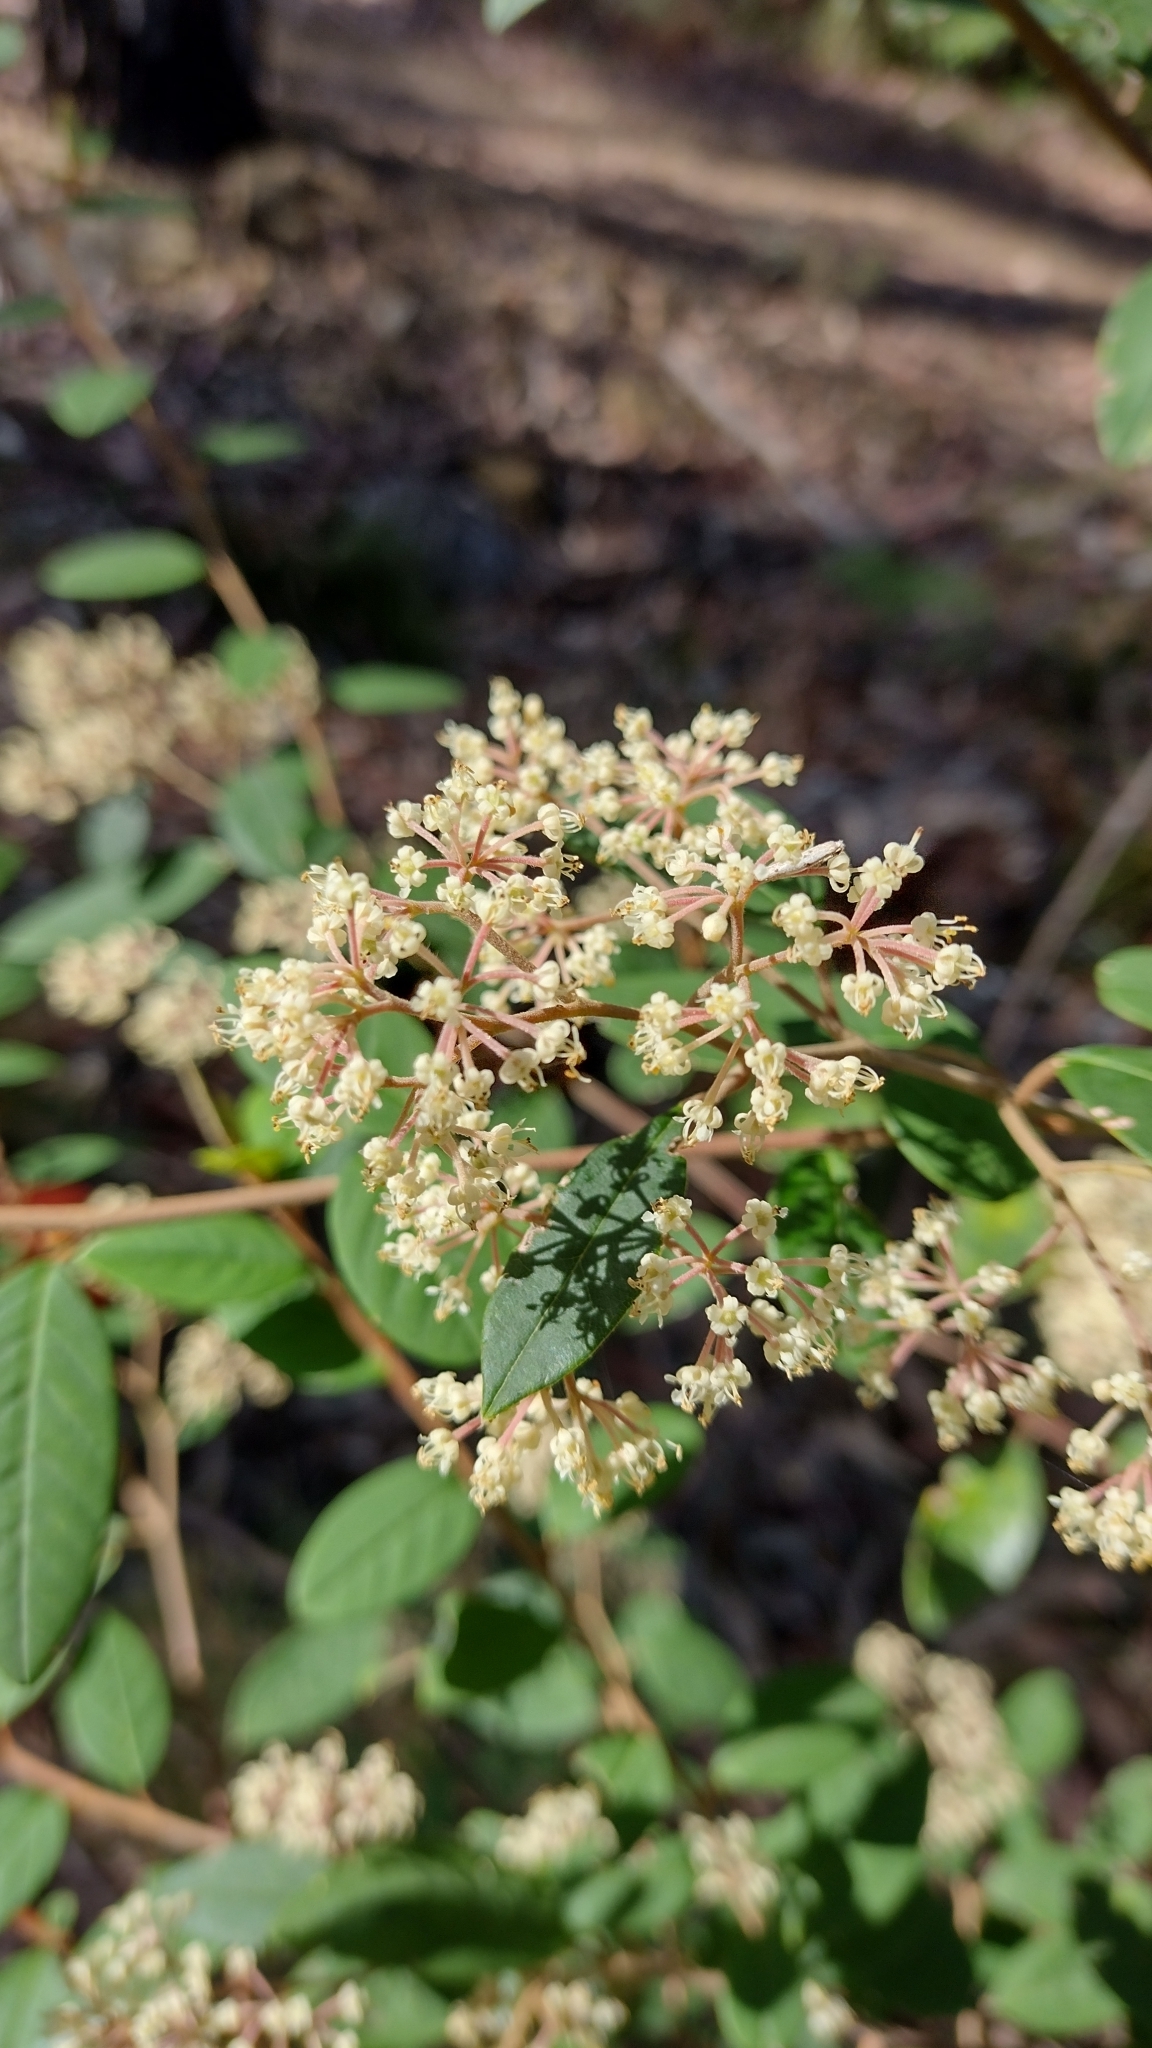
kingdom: Plantae
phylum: Tracheophyta
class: Magnoliopsida
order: Rosales
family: Rhamnaceae
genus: Pomaderris
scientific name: Pomaderris discolor
